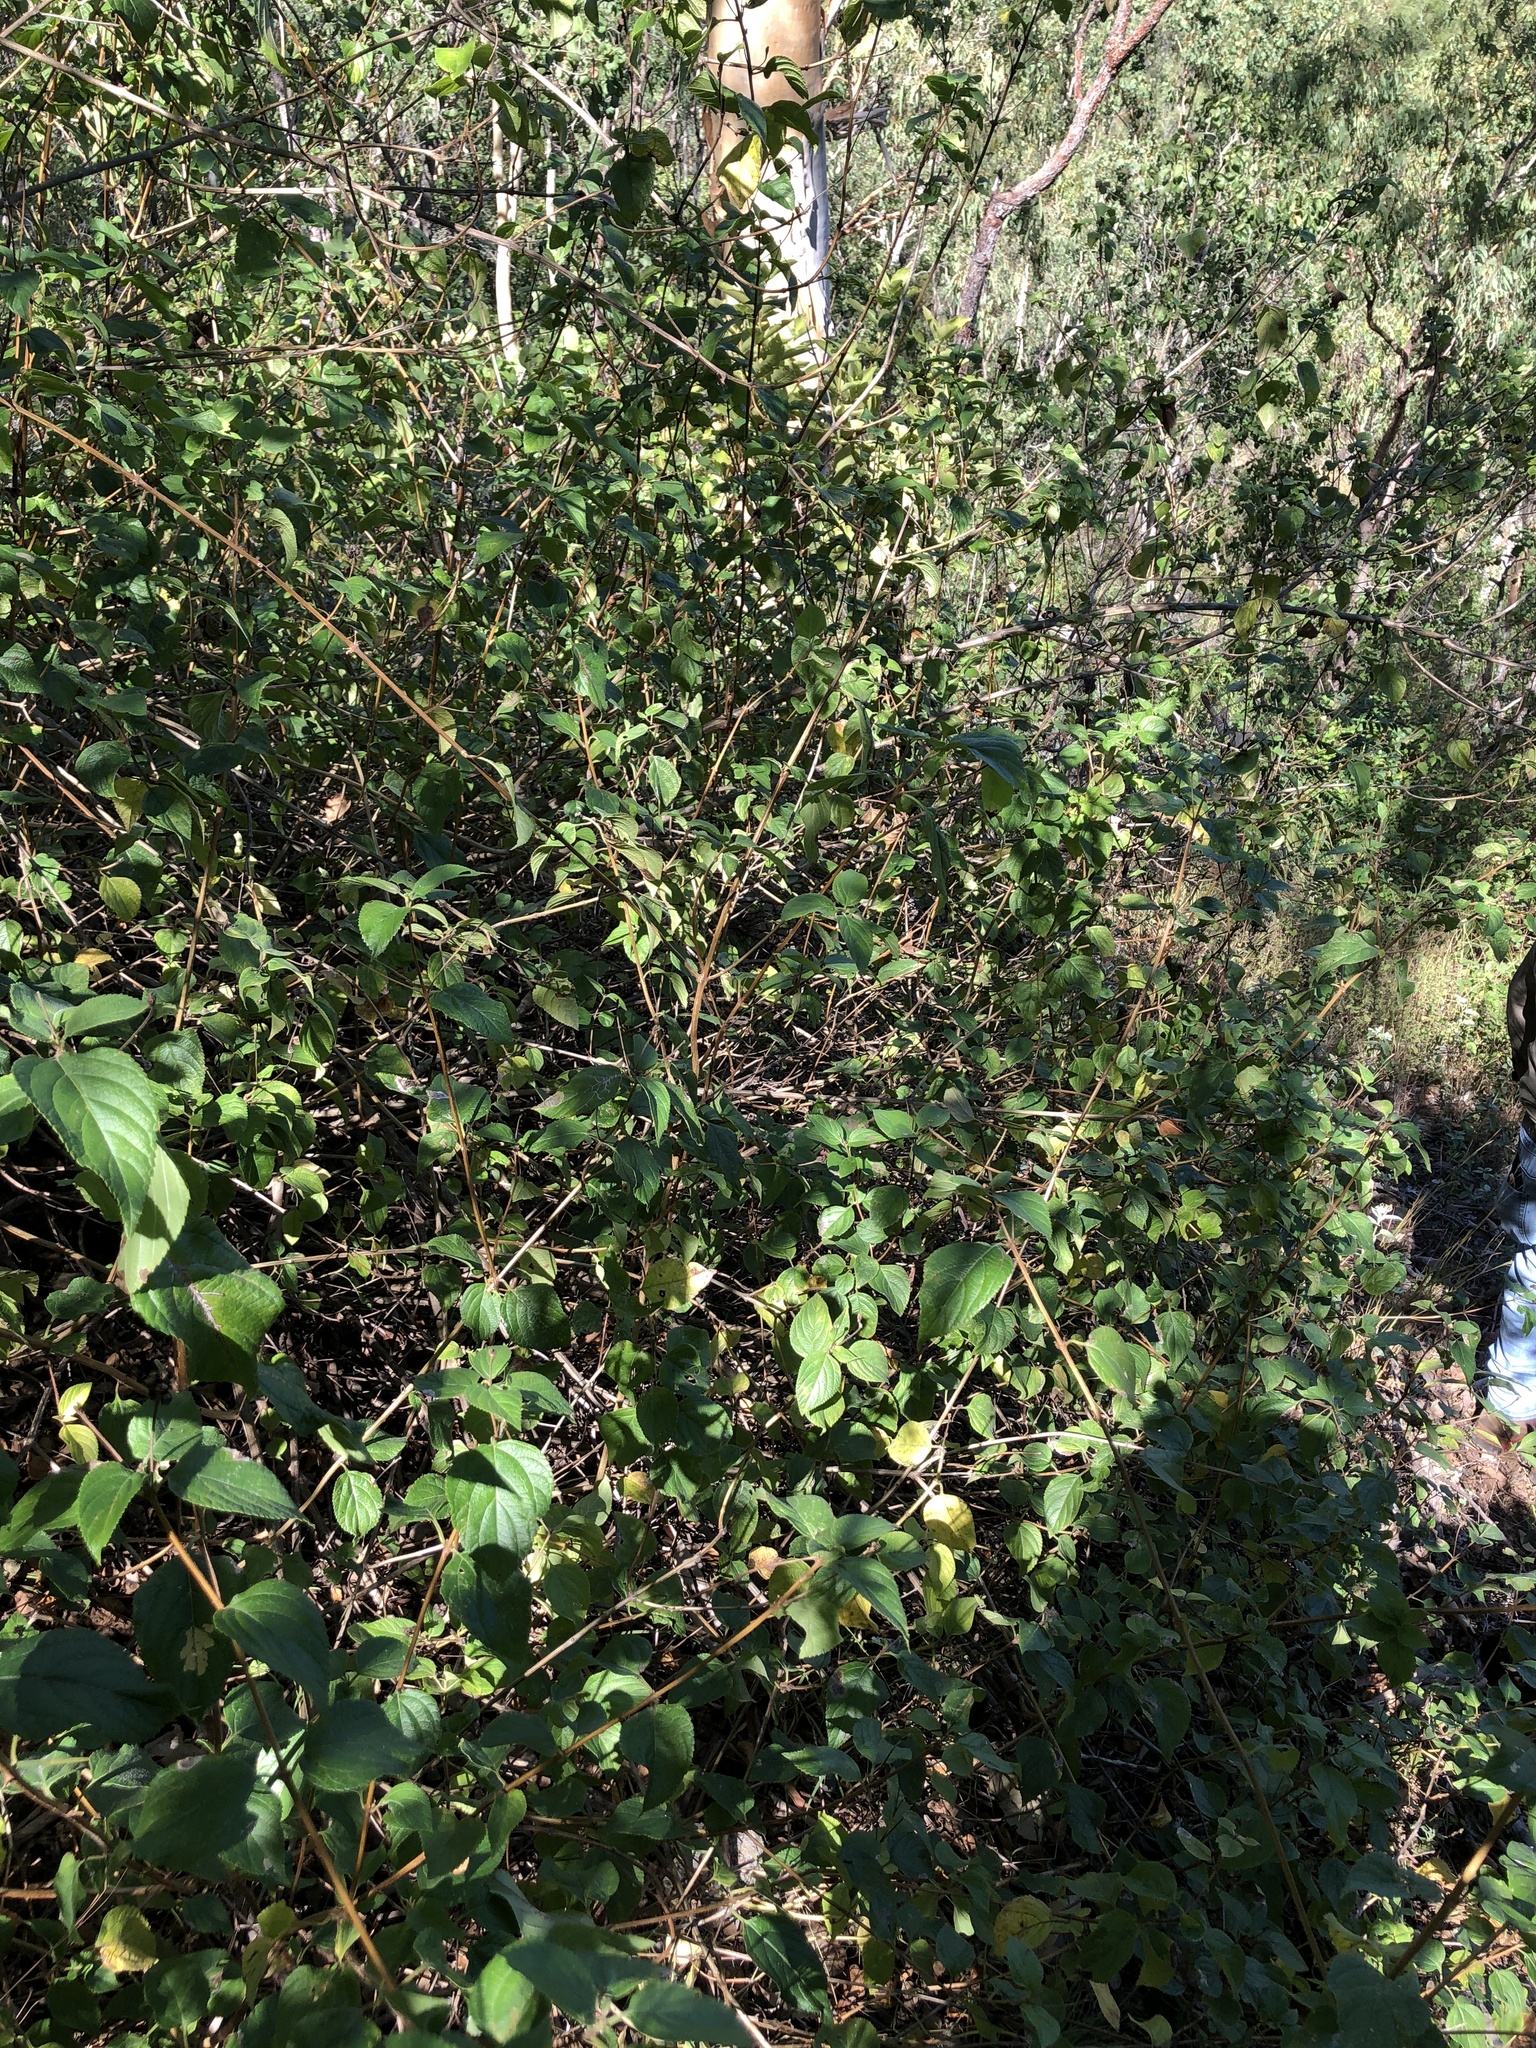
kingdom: Plantae
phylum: Tracheophyta
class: Magnoliopsida
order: Lamiales
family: Verbenaceae
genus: Lantana
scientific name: Lantana camara
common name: Lantana
